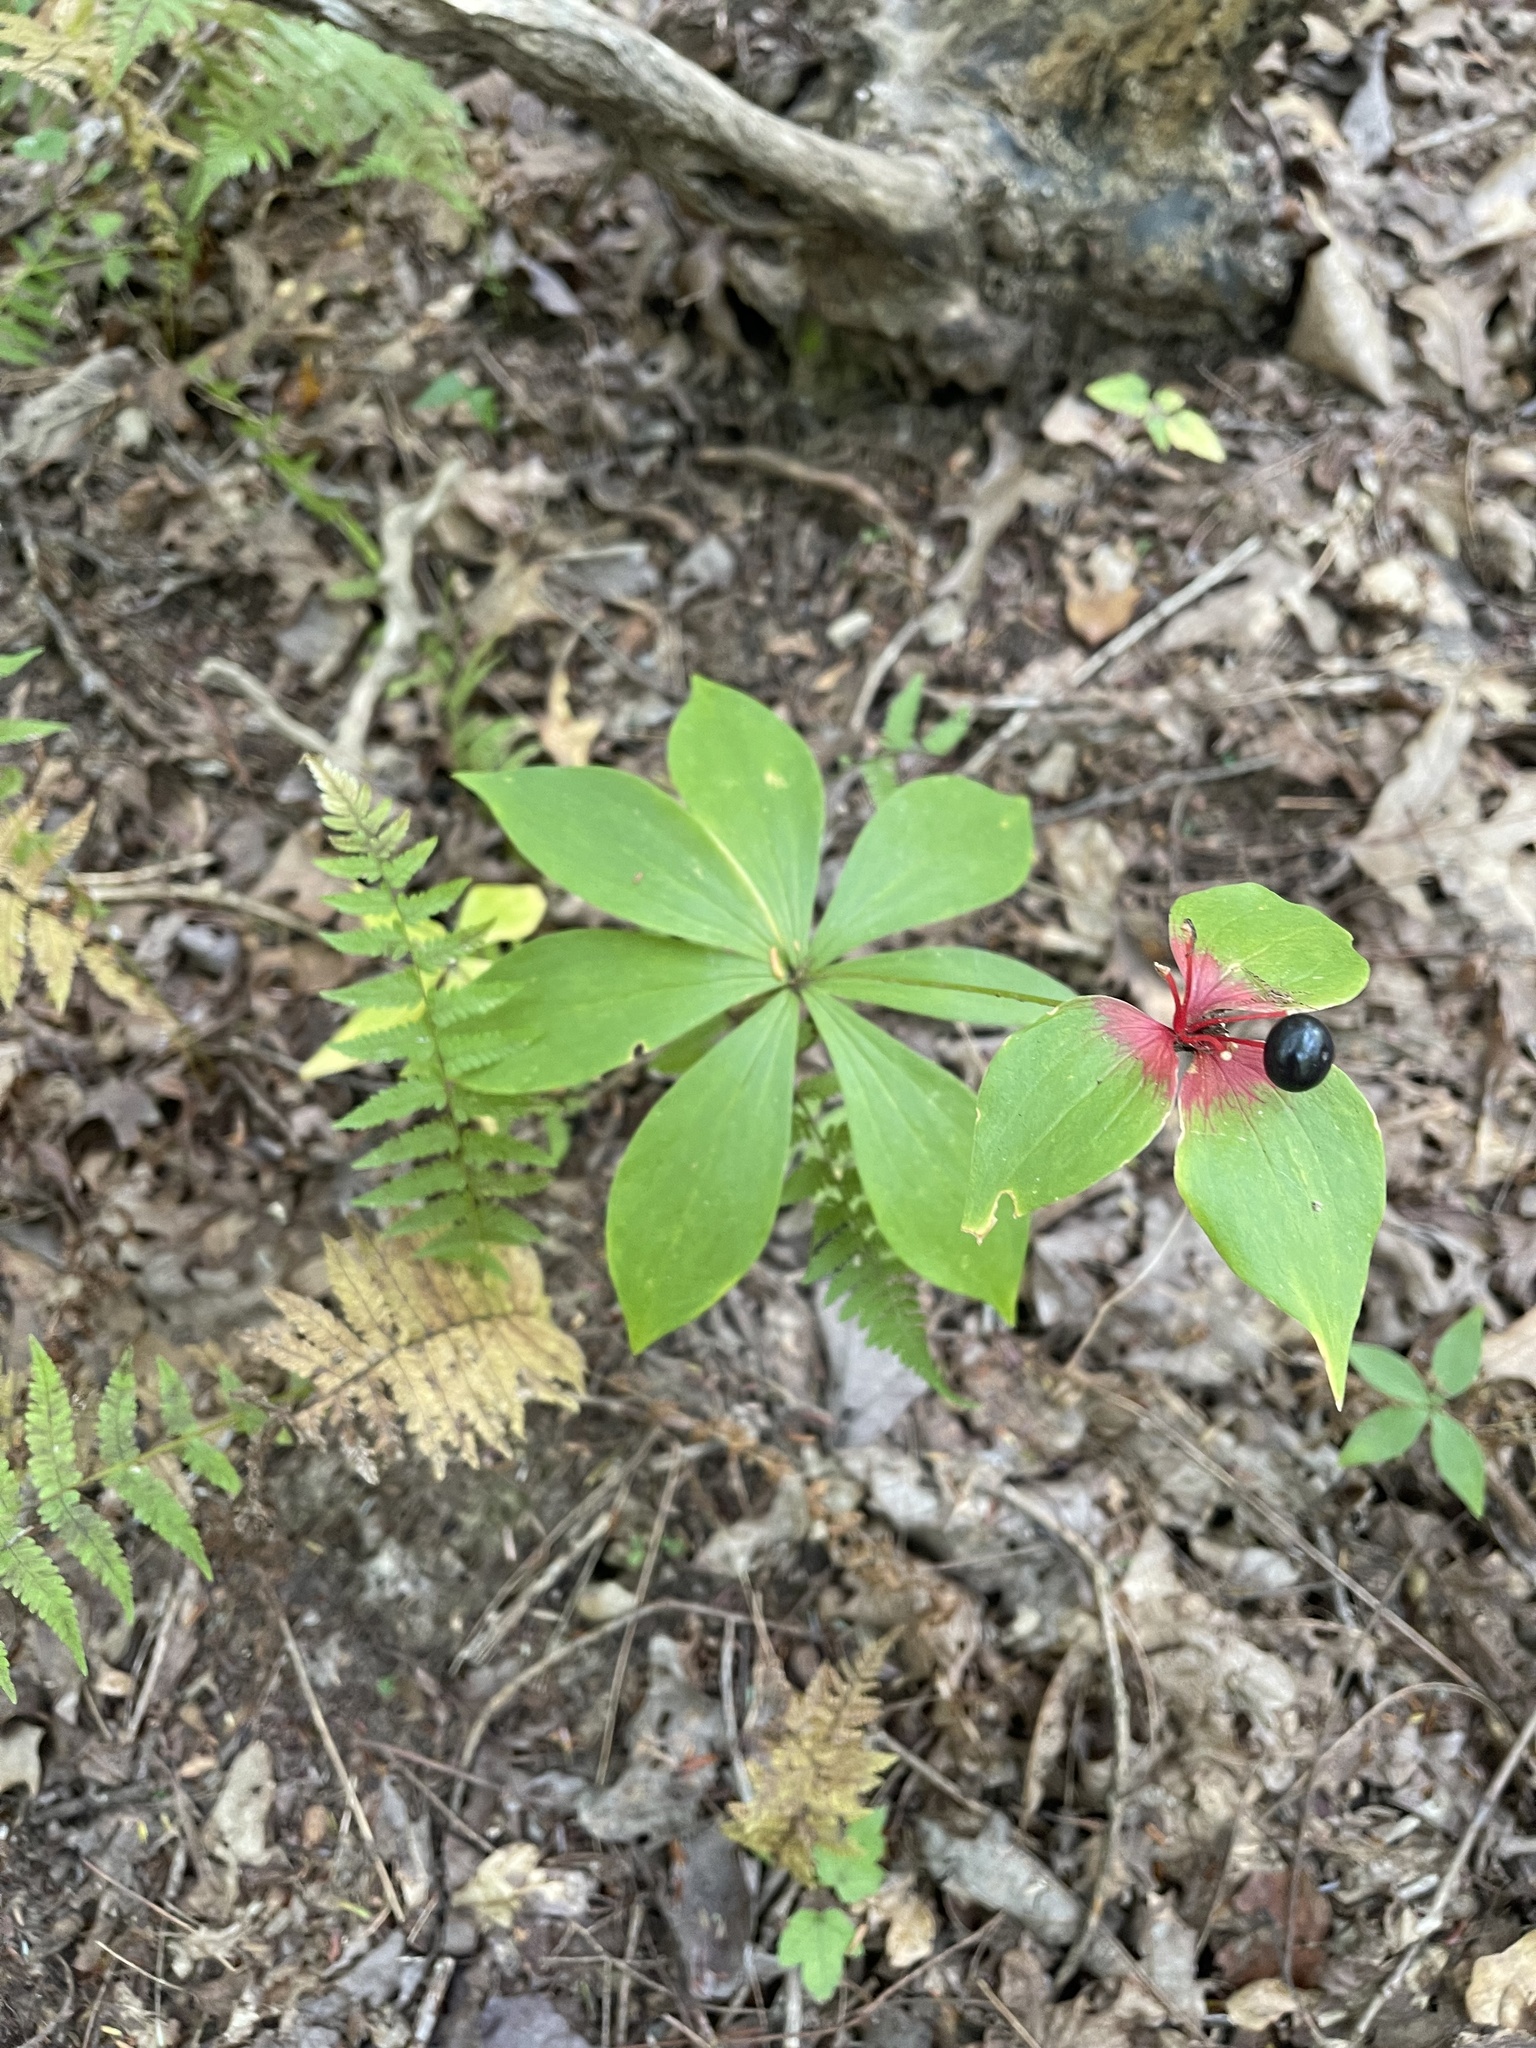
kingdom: Plantae
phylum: Tracheophyta
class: Liliopsida
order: Liliales
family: Liliaceae
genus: Medeola
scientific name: Medeola virginiana
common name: Indian cucumber-root
